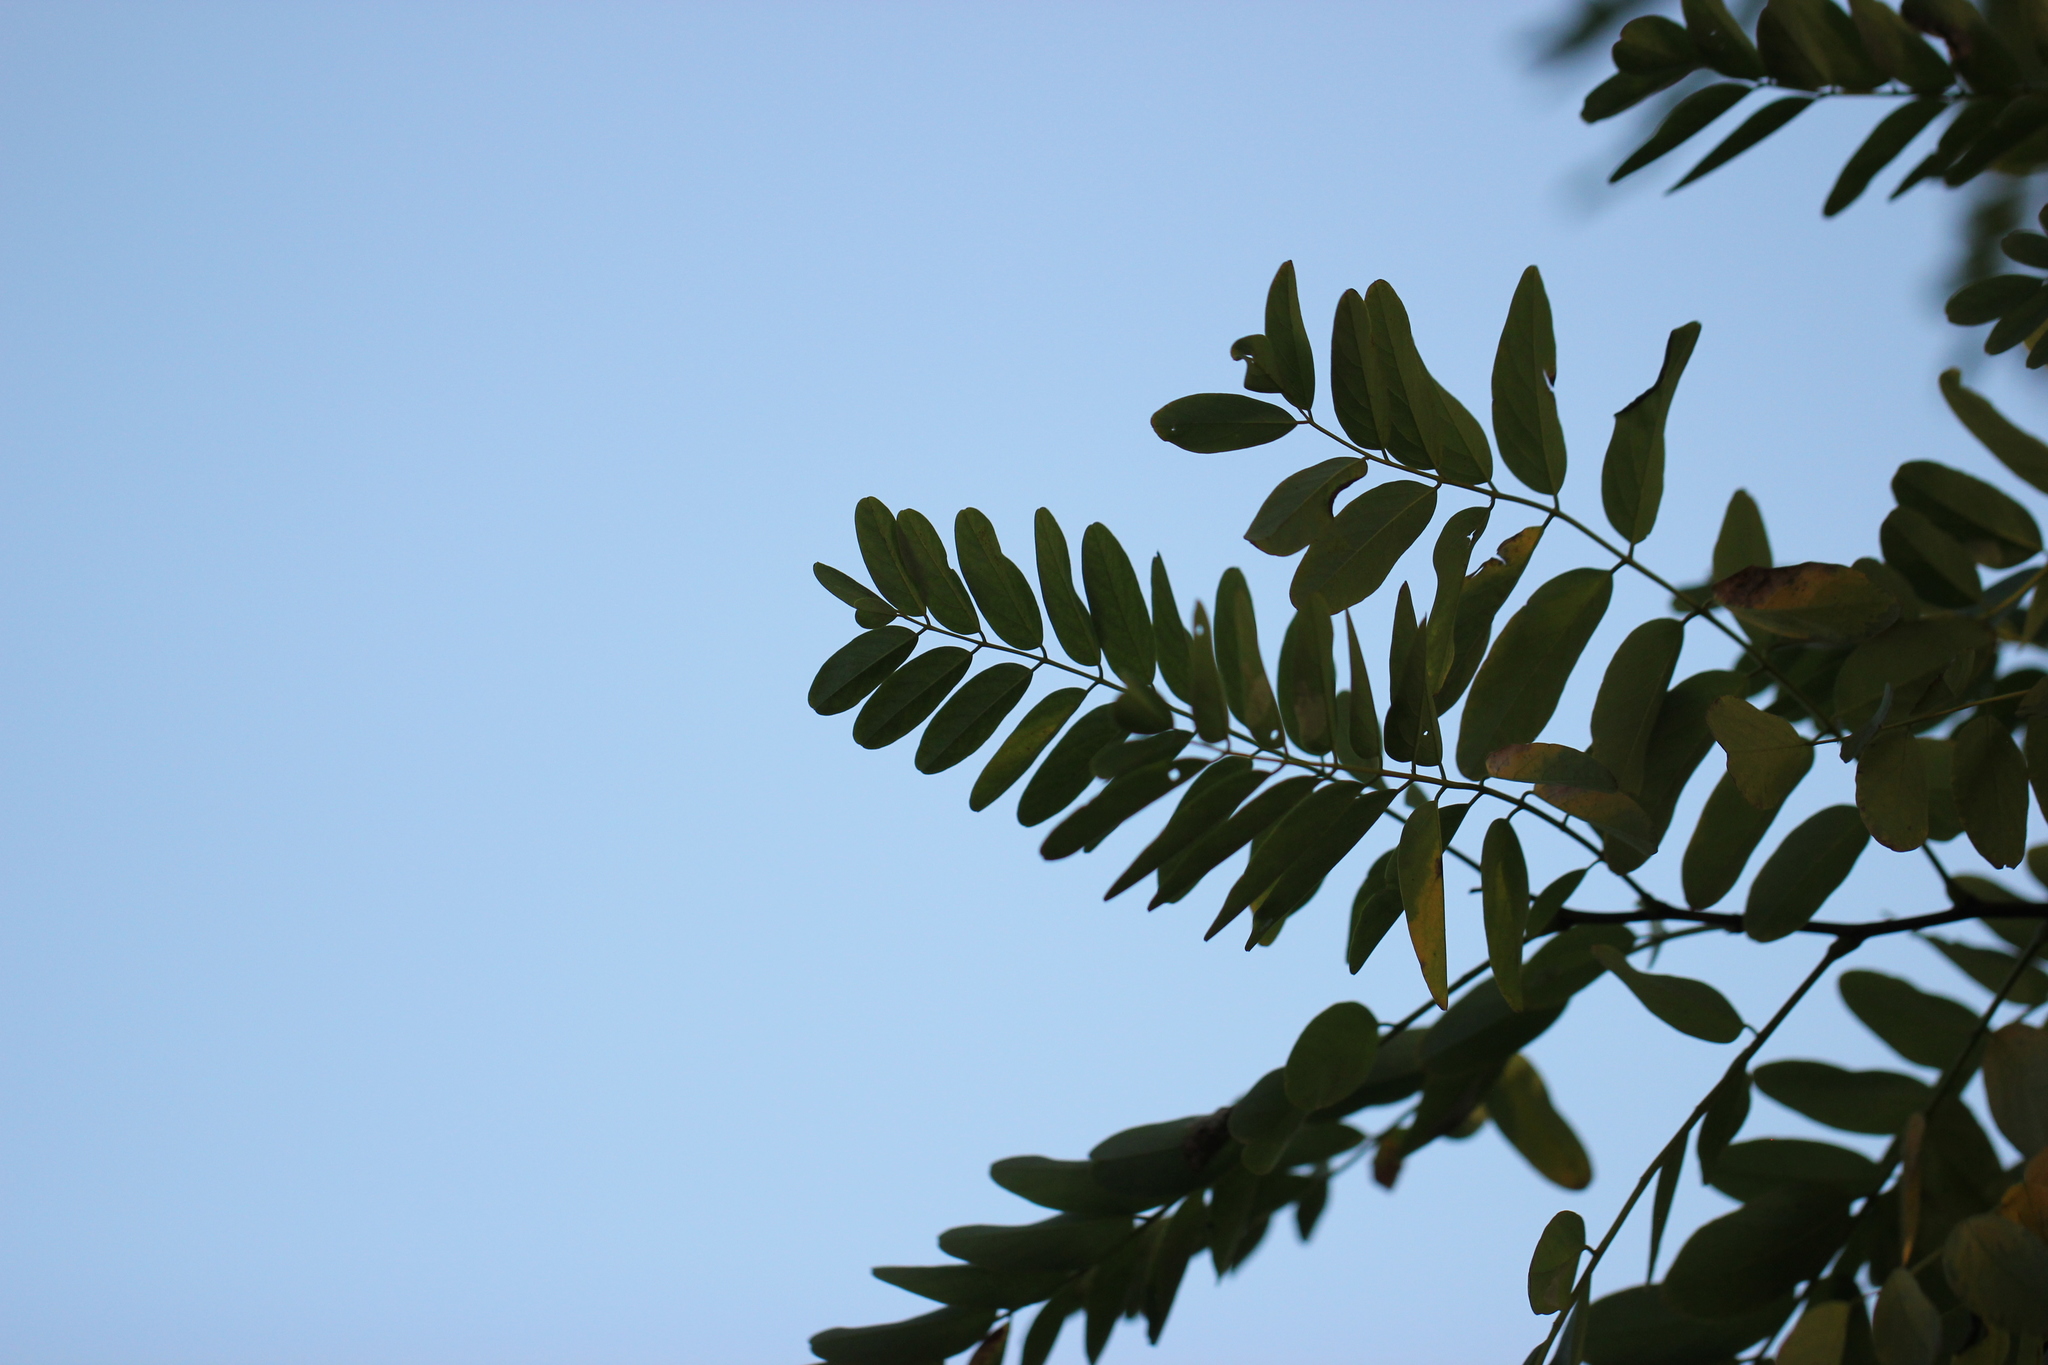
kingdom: Plantae
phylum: Tracheophyta
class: Magnoliopsida
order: Fabales
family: Fabaceae
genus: Robinia
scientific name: Robinia pseudoacacia
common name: Black locust
